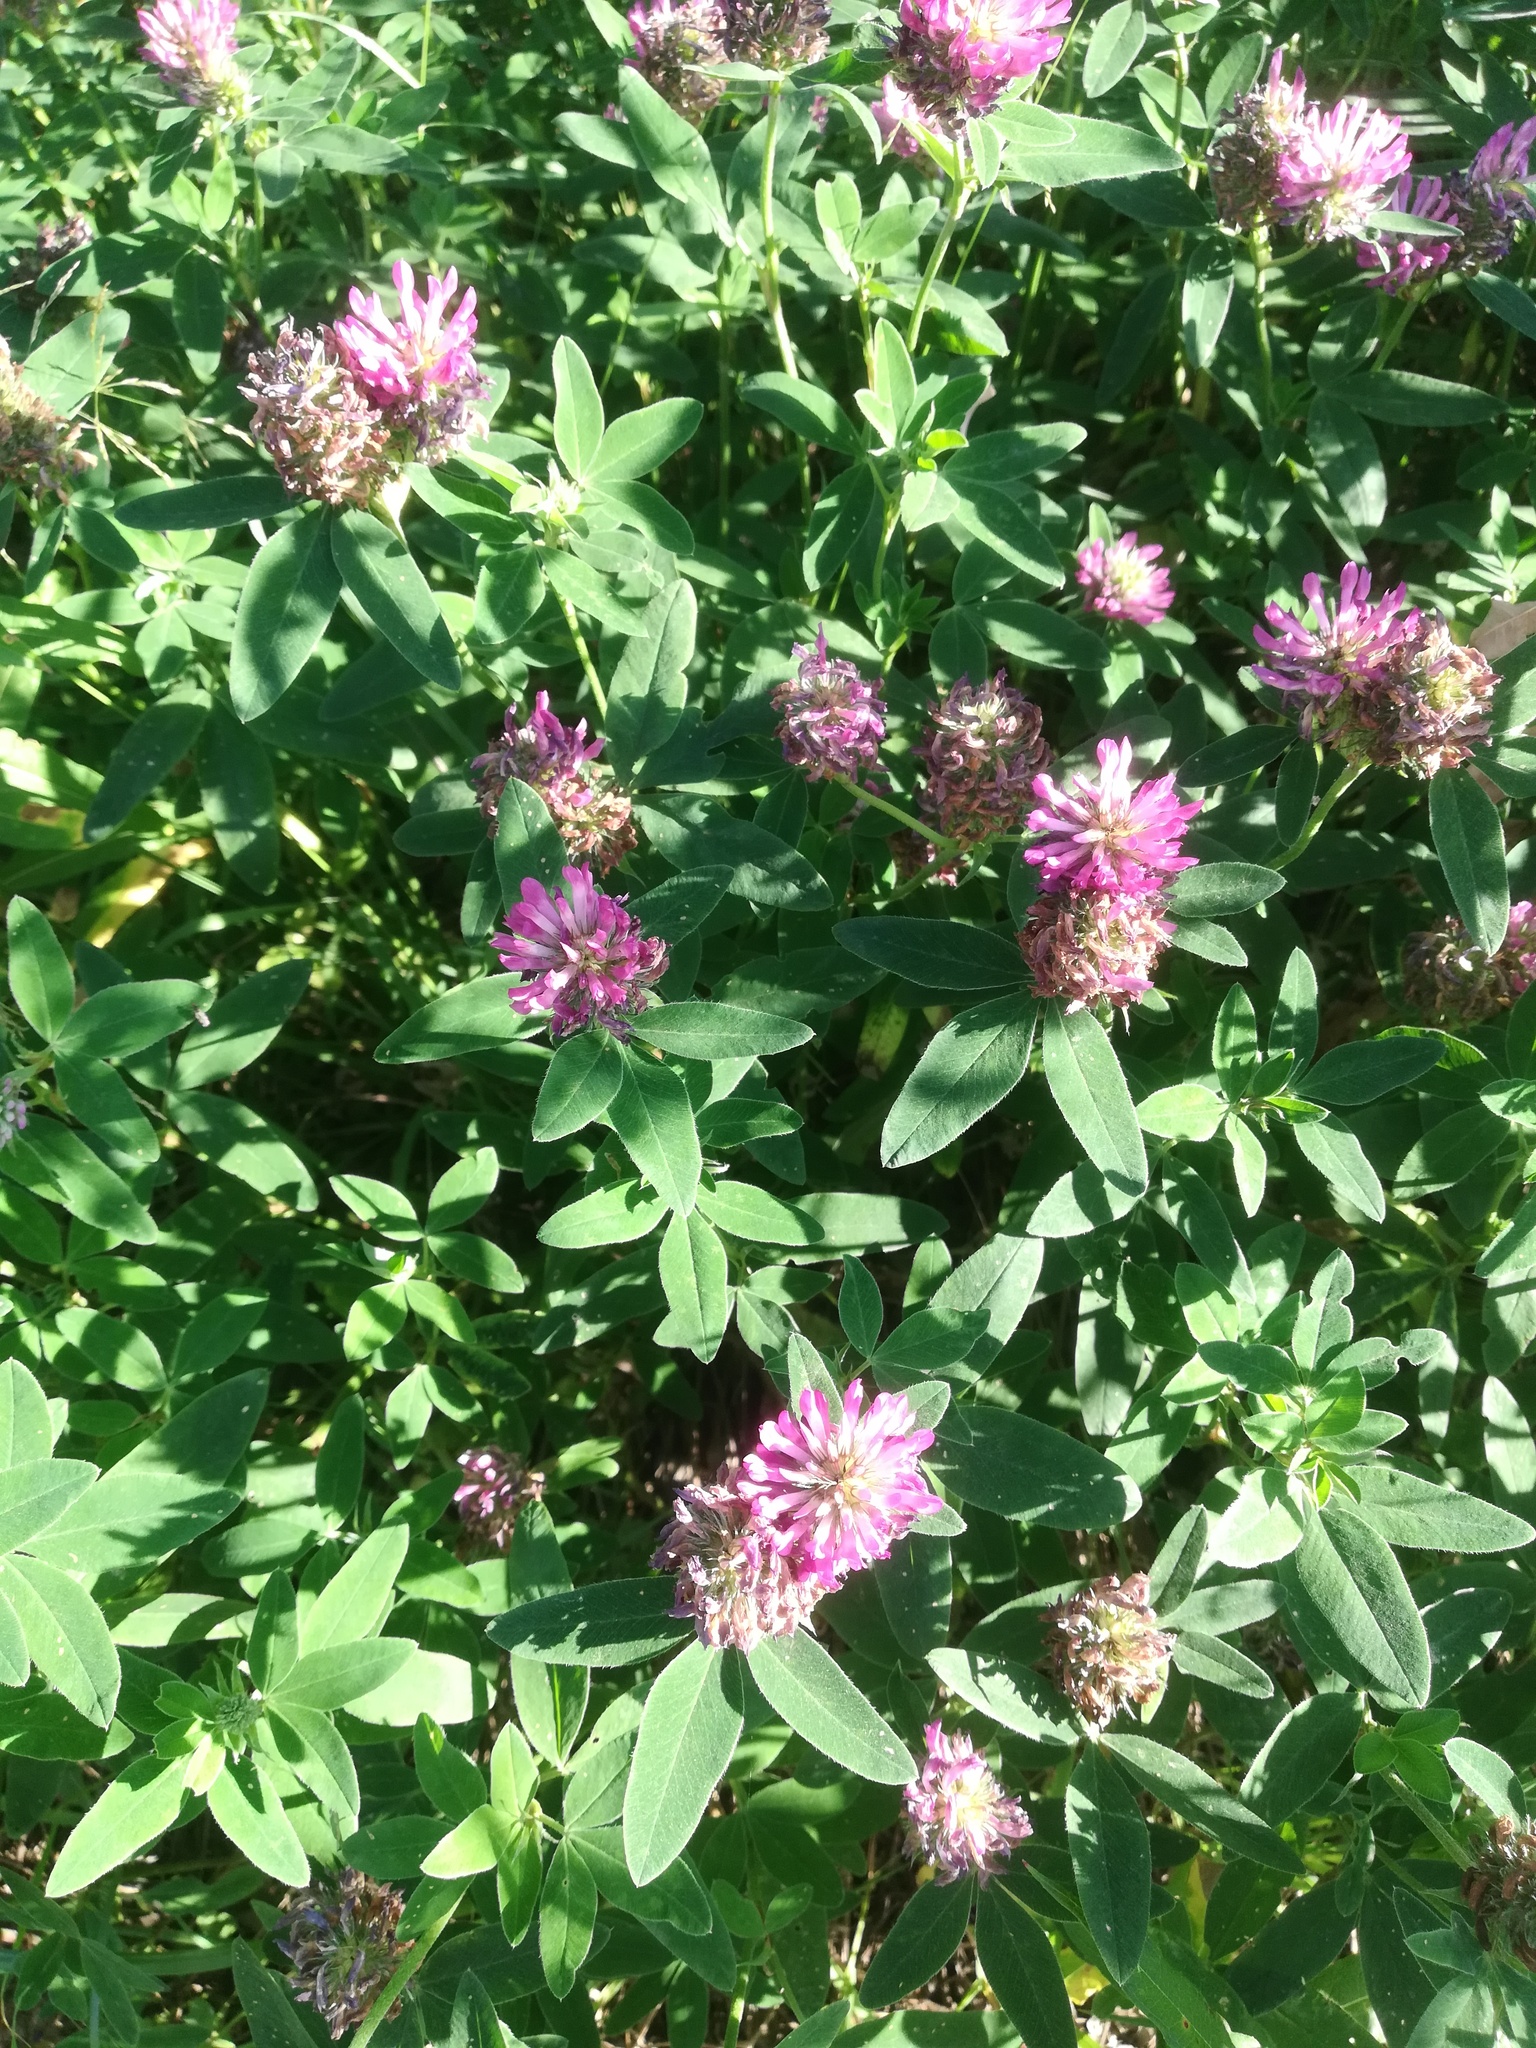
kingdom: Plantae
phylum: Tracheophyta
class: Magnoliopsida
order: Fabales
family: Fabaceae
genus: Trifolium
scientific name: Trifolium medium
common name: Zigzag clover
